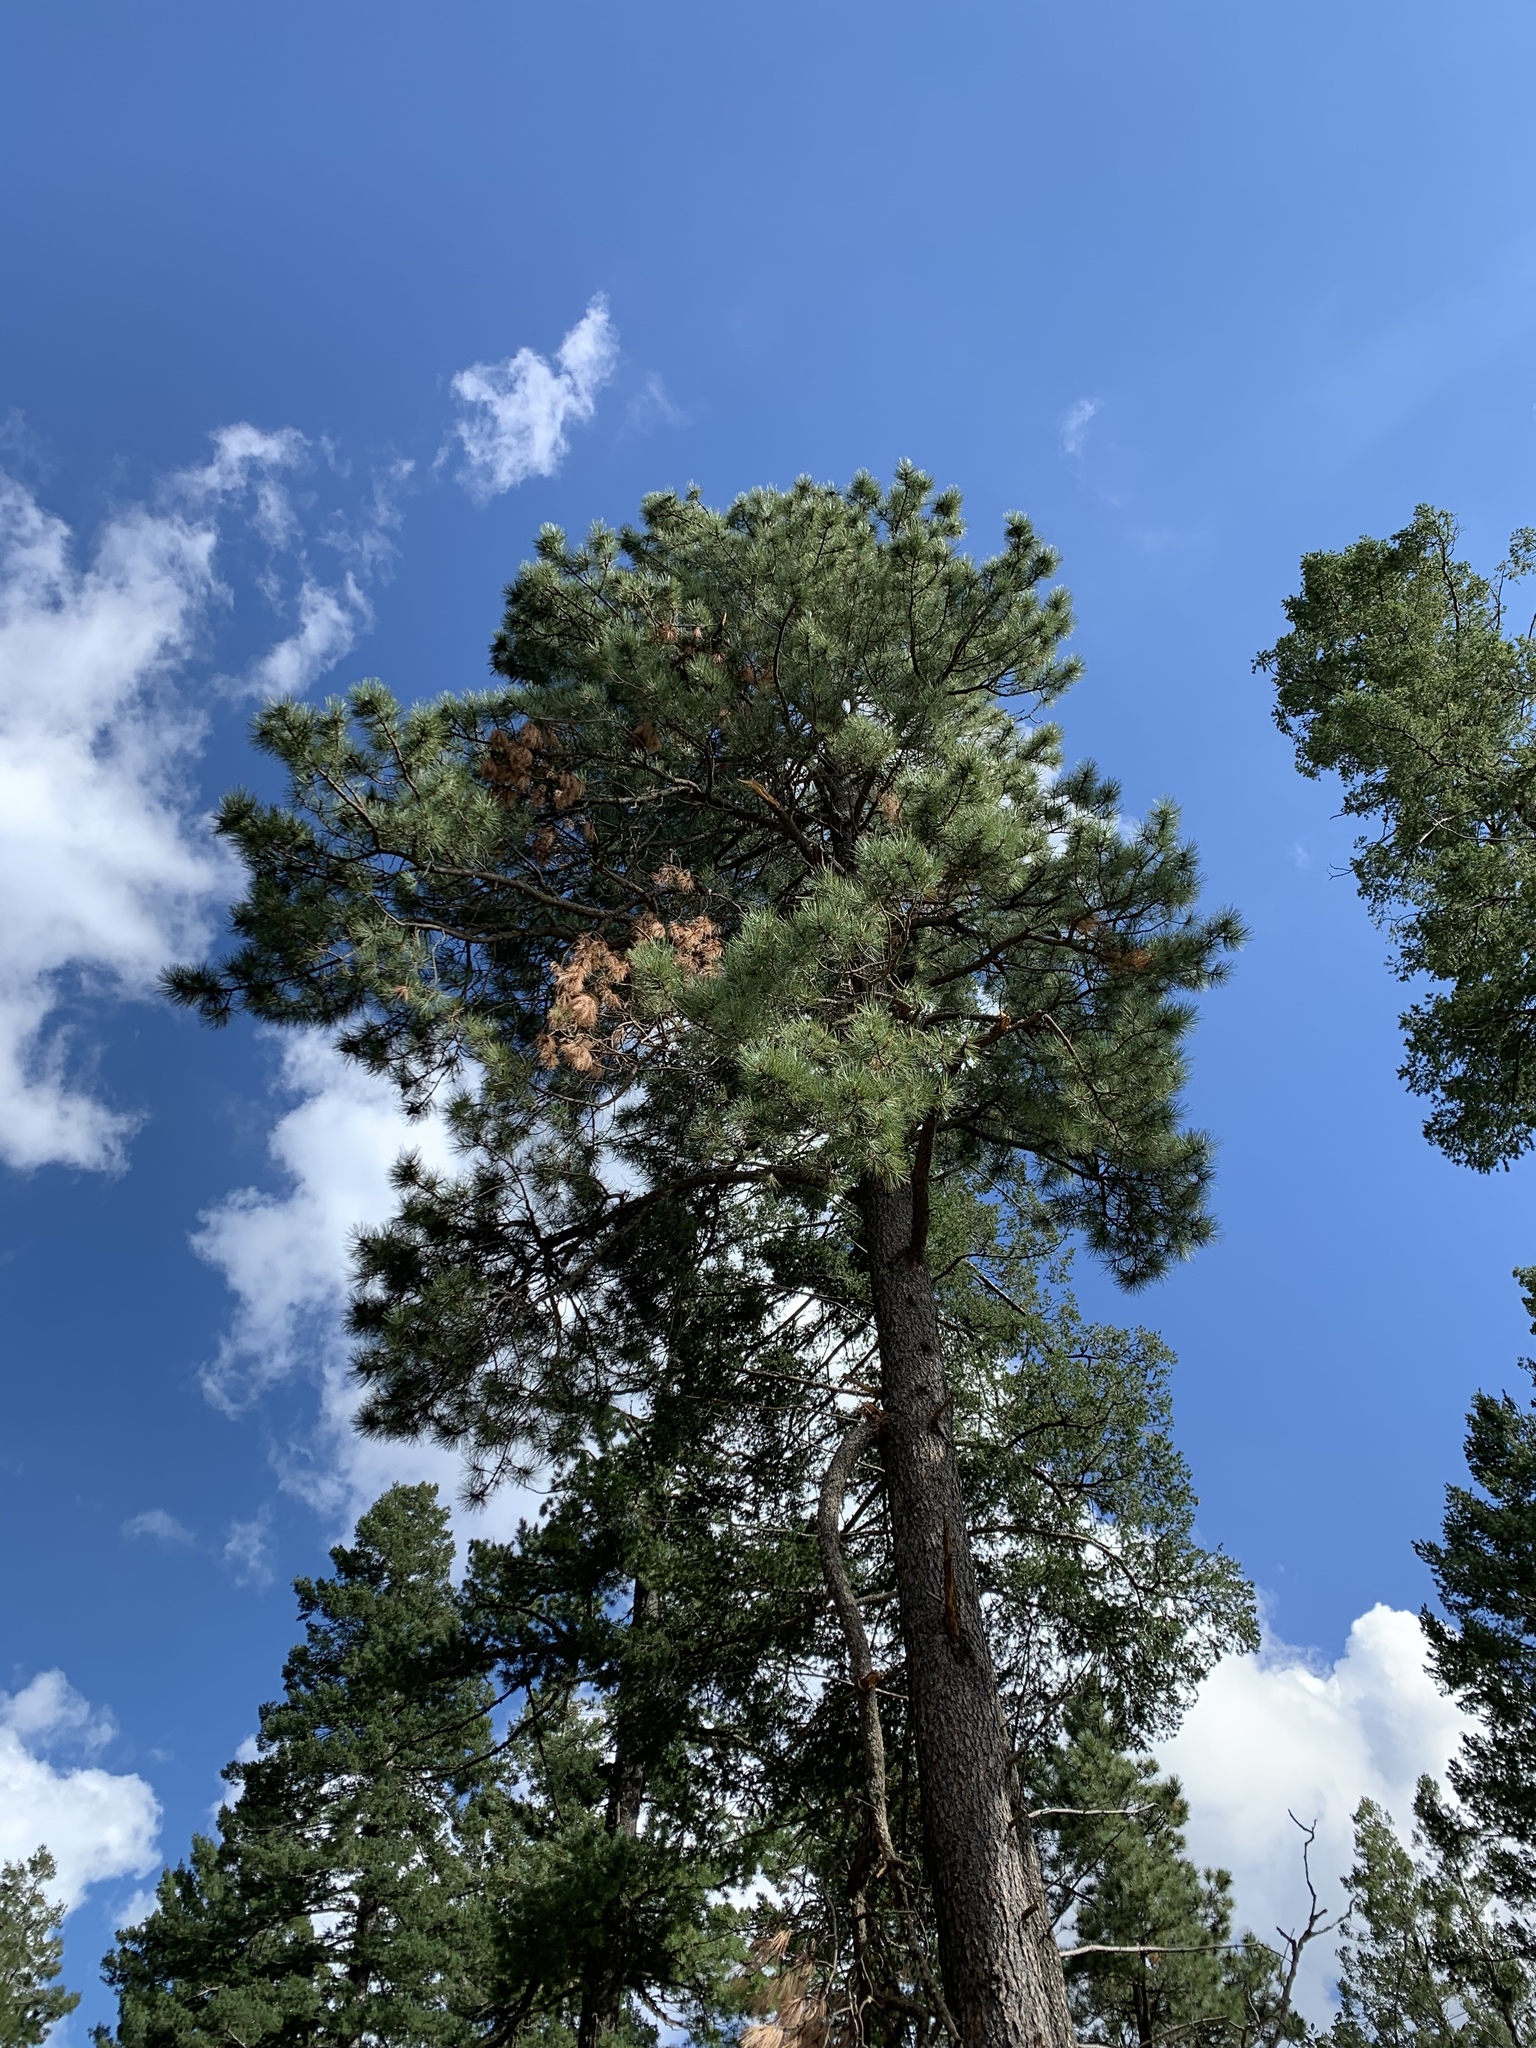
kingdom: Plantae
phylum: Tracheophyta
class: Pinopsida
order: Pinales
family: Pinaceae
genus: Pinus
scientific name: Pinus ponderosa
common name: Western yellow-pine
